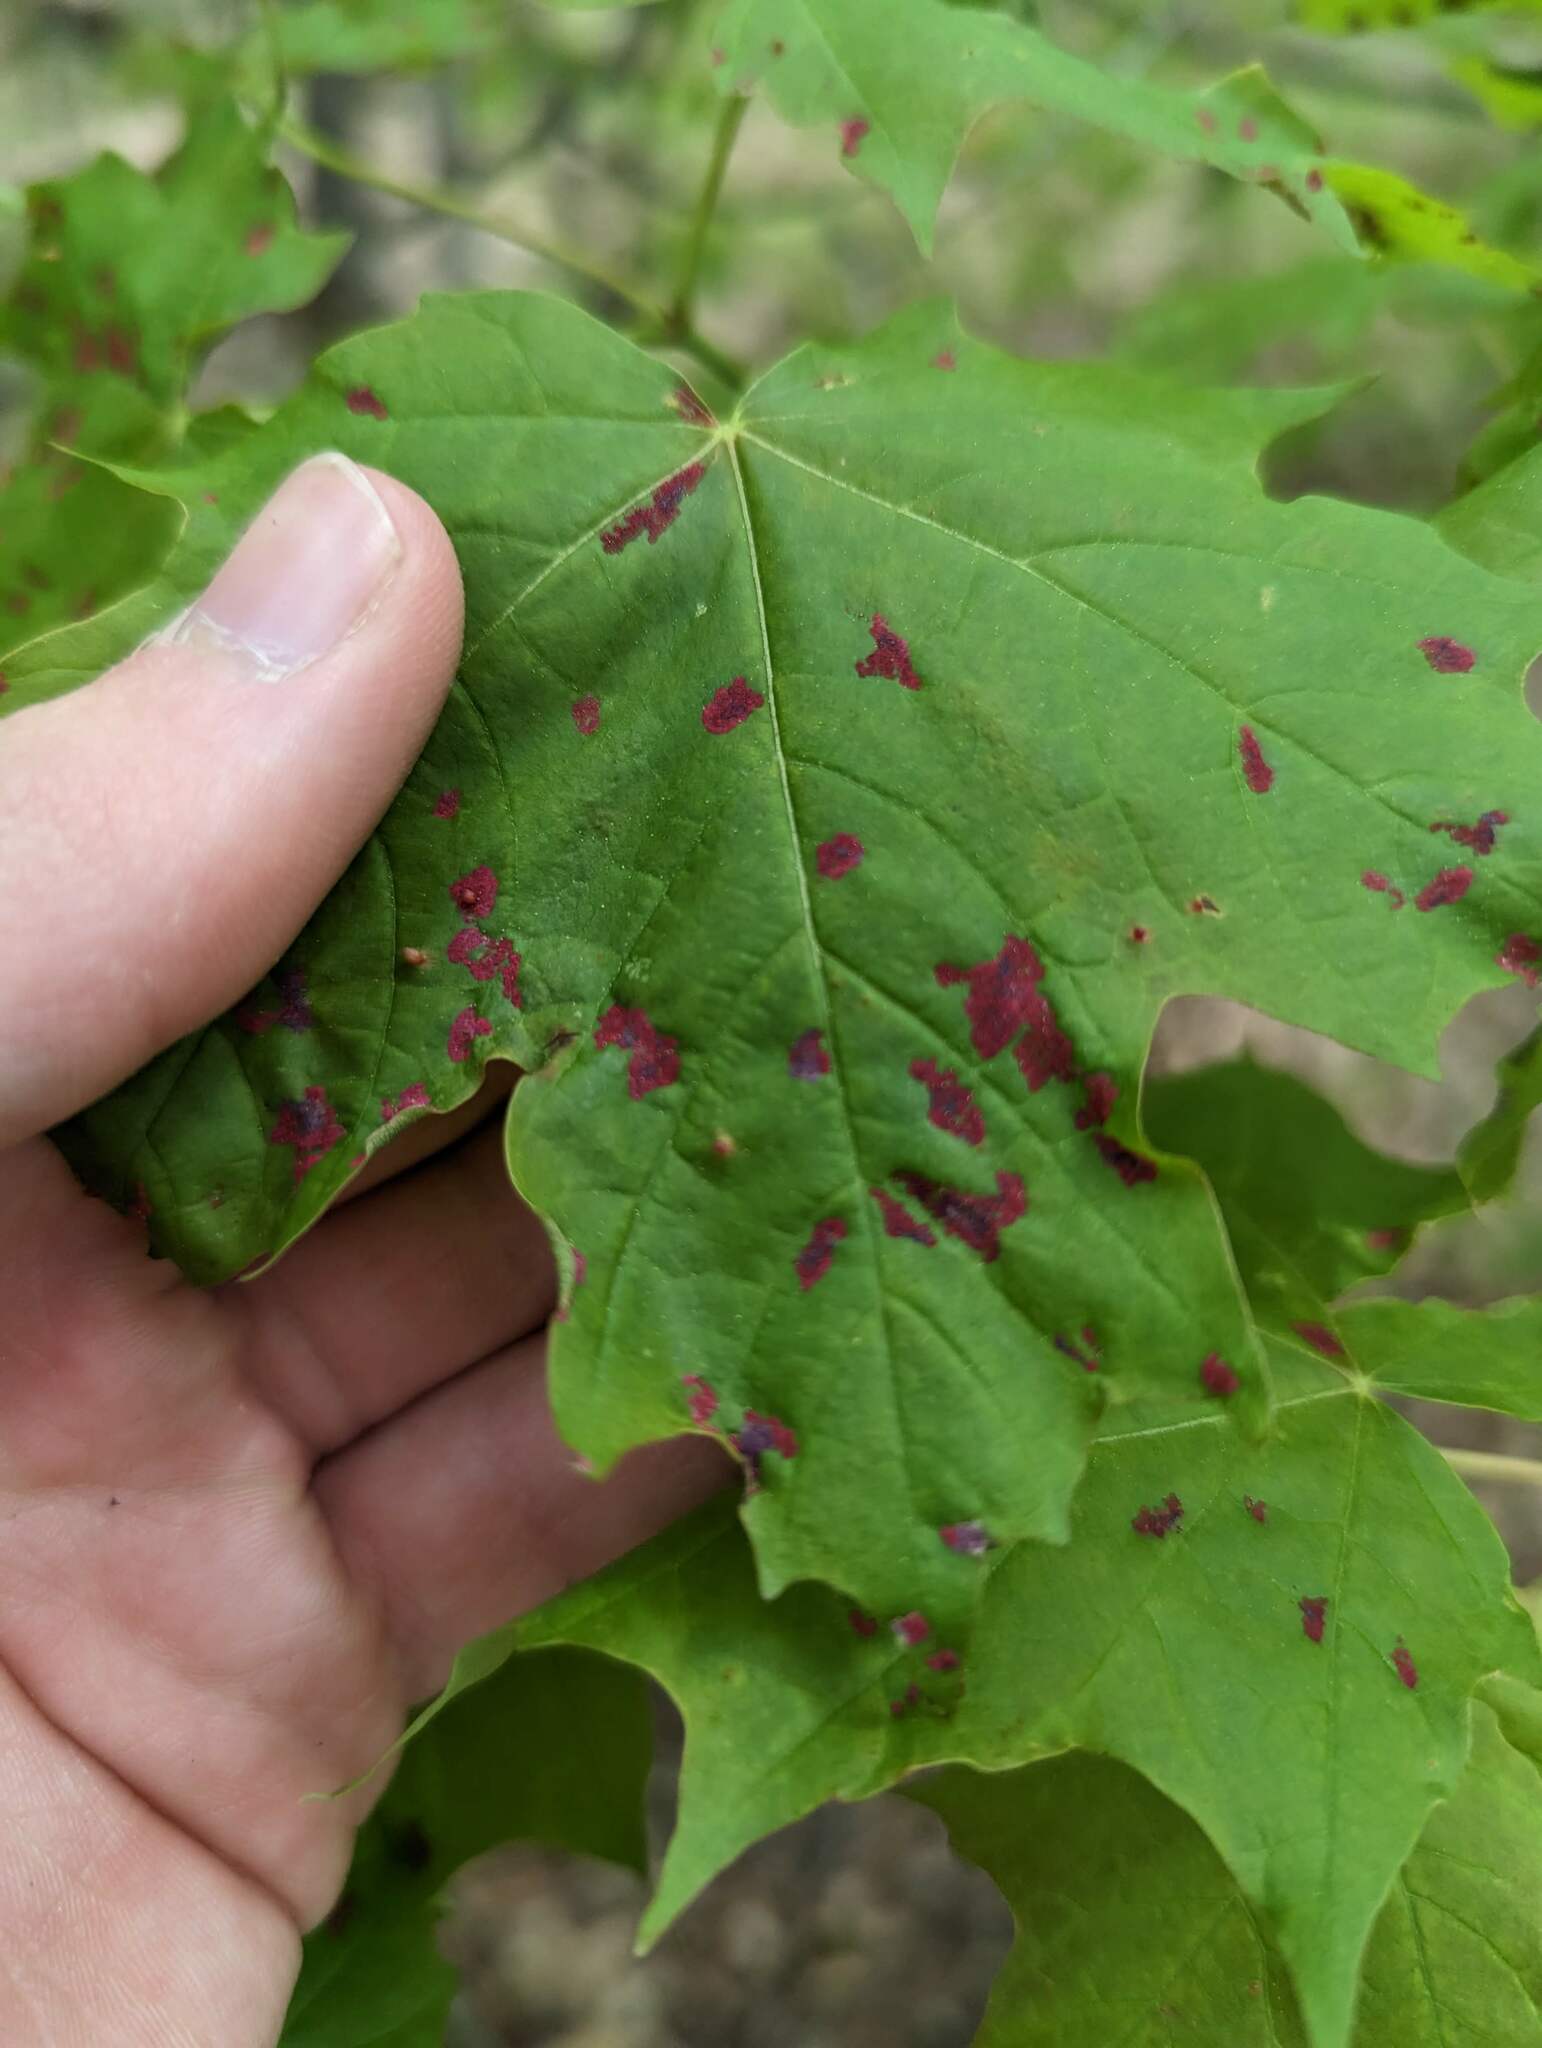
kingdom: Plantae
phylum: Tracheophyta
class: Magnoliopsida
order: Sapindales
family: Sapindaceae
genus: Acer
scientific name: Acer saccharum
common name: Sugar maple
